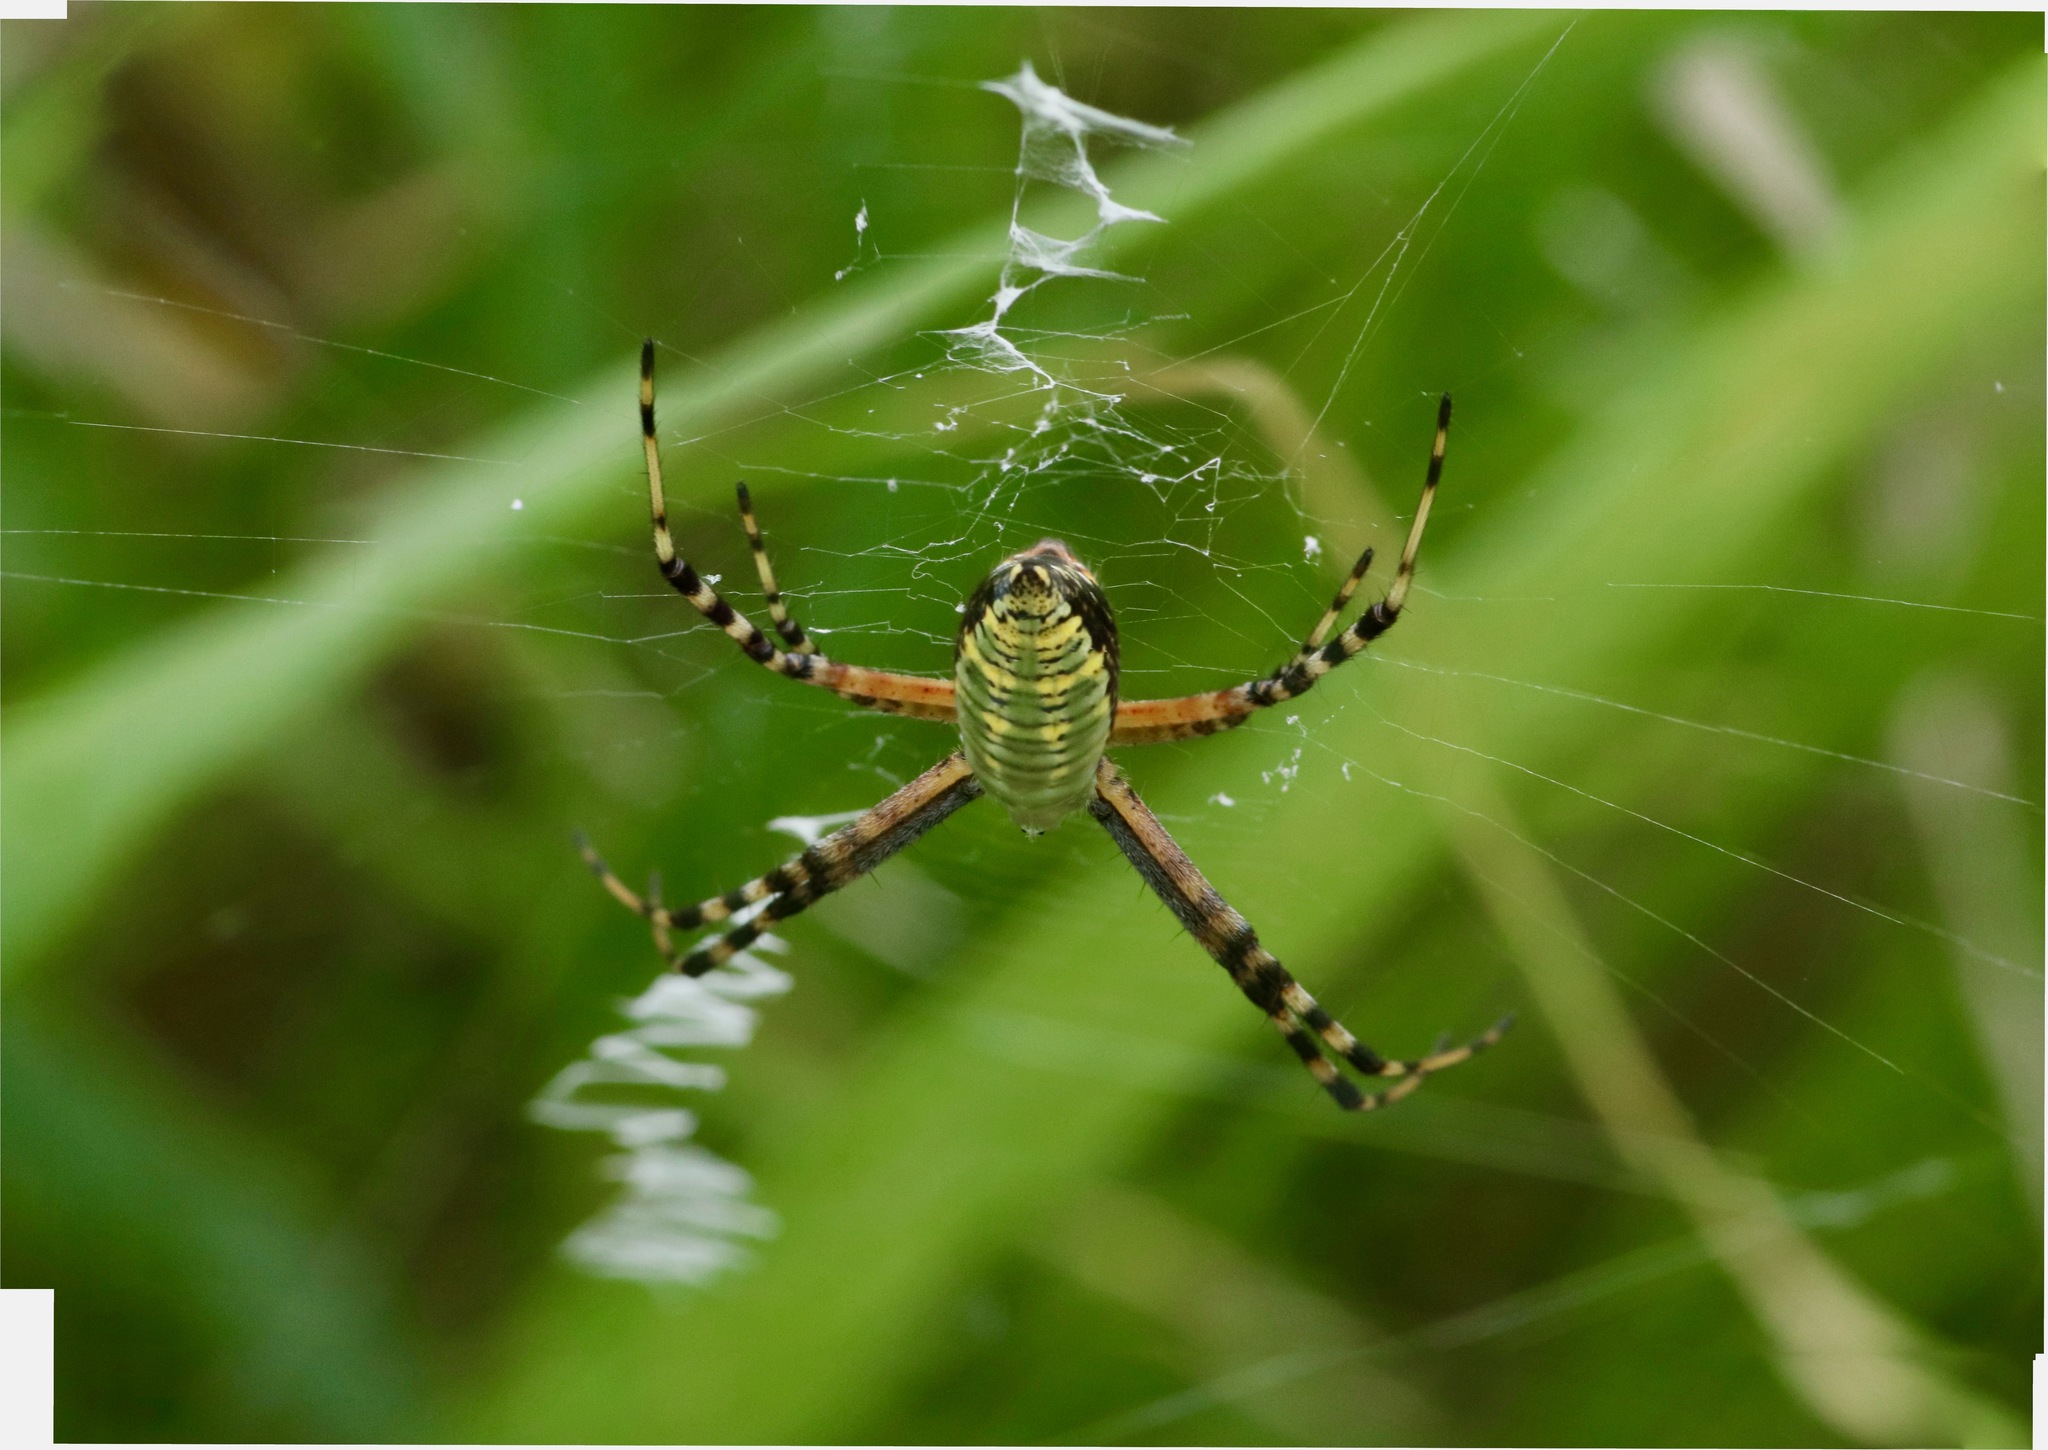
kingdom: Animalia
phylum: Arthropoda
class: Arachnida
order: Araneae
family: Araneidae
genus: Argiope
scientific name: Argiope trifasciata
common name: Banded garden spider
